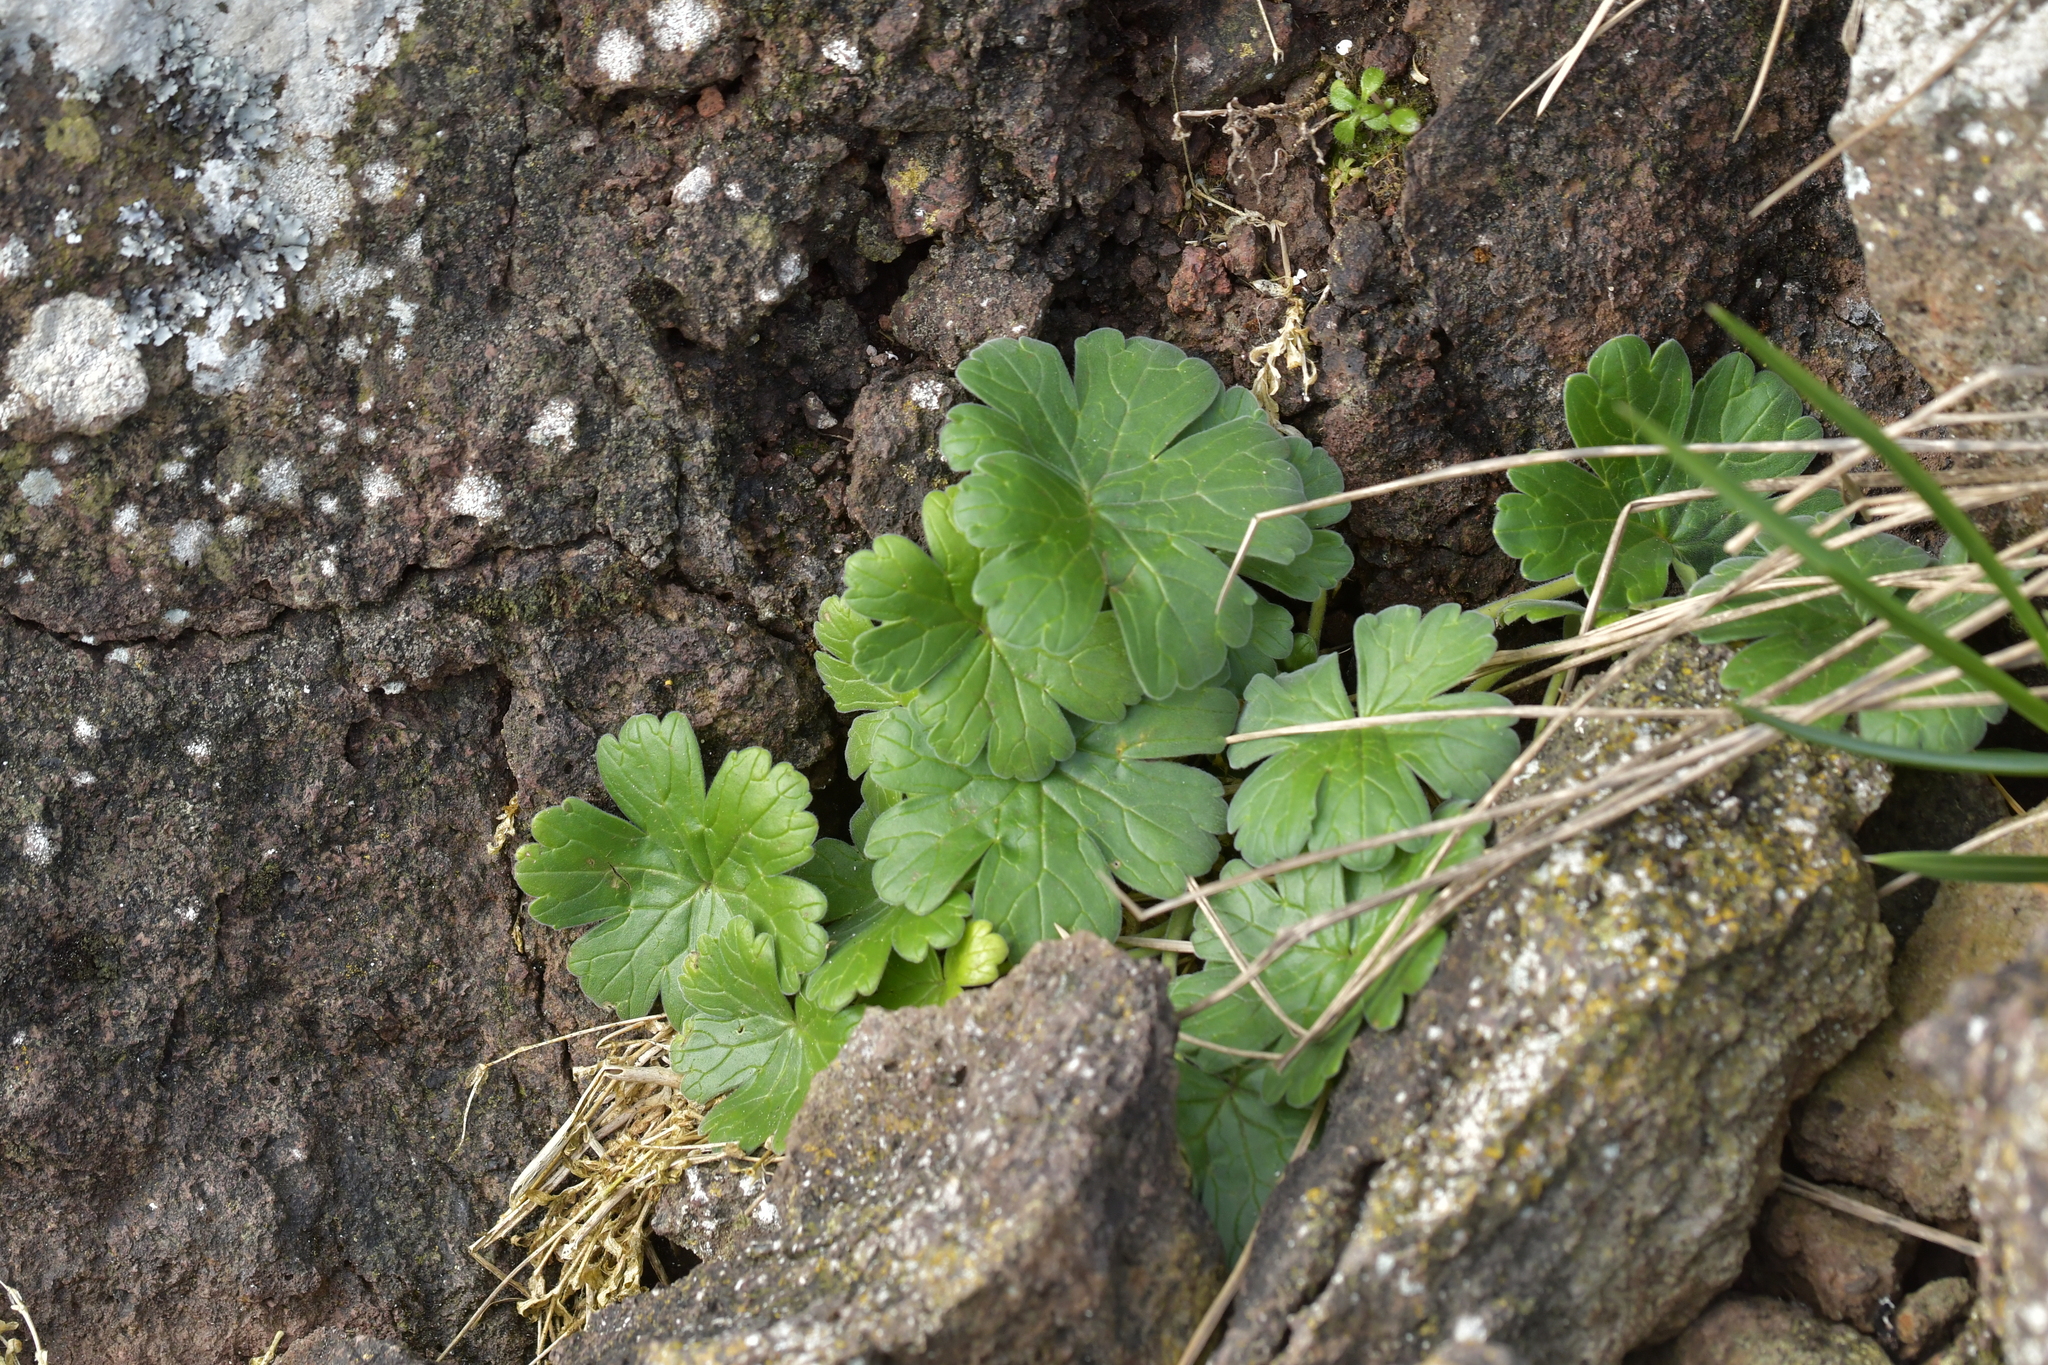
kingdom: Plantae
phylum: Tracheophyta
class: Magnoliopsida
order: Geraniales
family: Geraniaceae
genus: Geranium
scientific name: Geranium traversii
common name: Cranesbill
